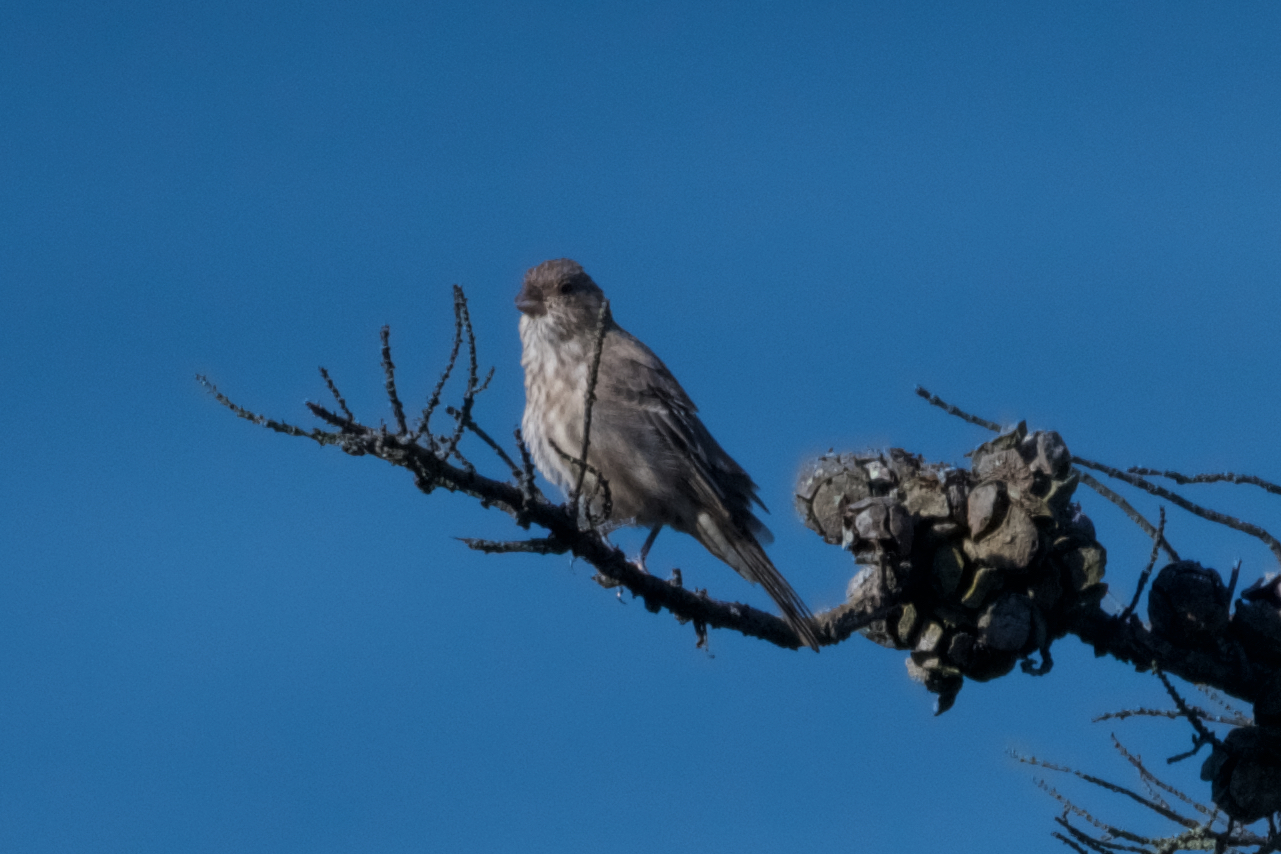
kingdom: Animalia
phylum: Chordata
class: Aves
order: Passeriformes
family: Fringillidae
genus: Haemorhous
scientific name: Haemorhous mexicanus
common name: House finch
